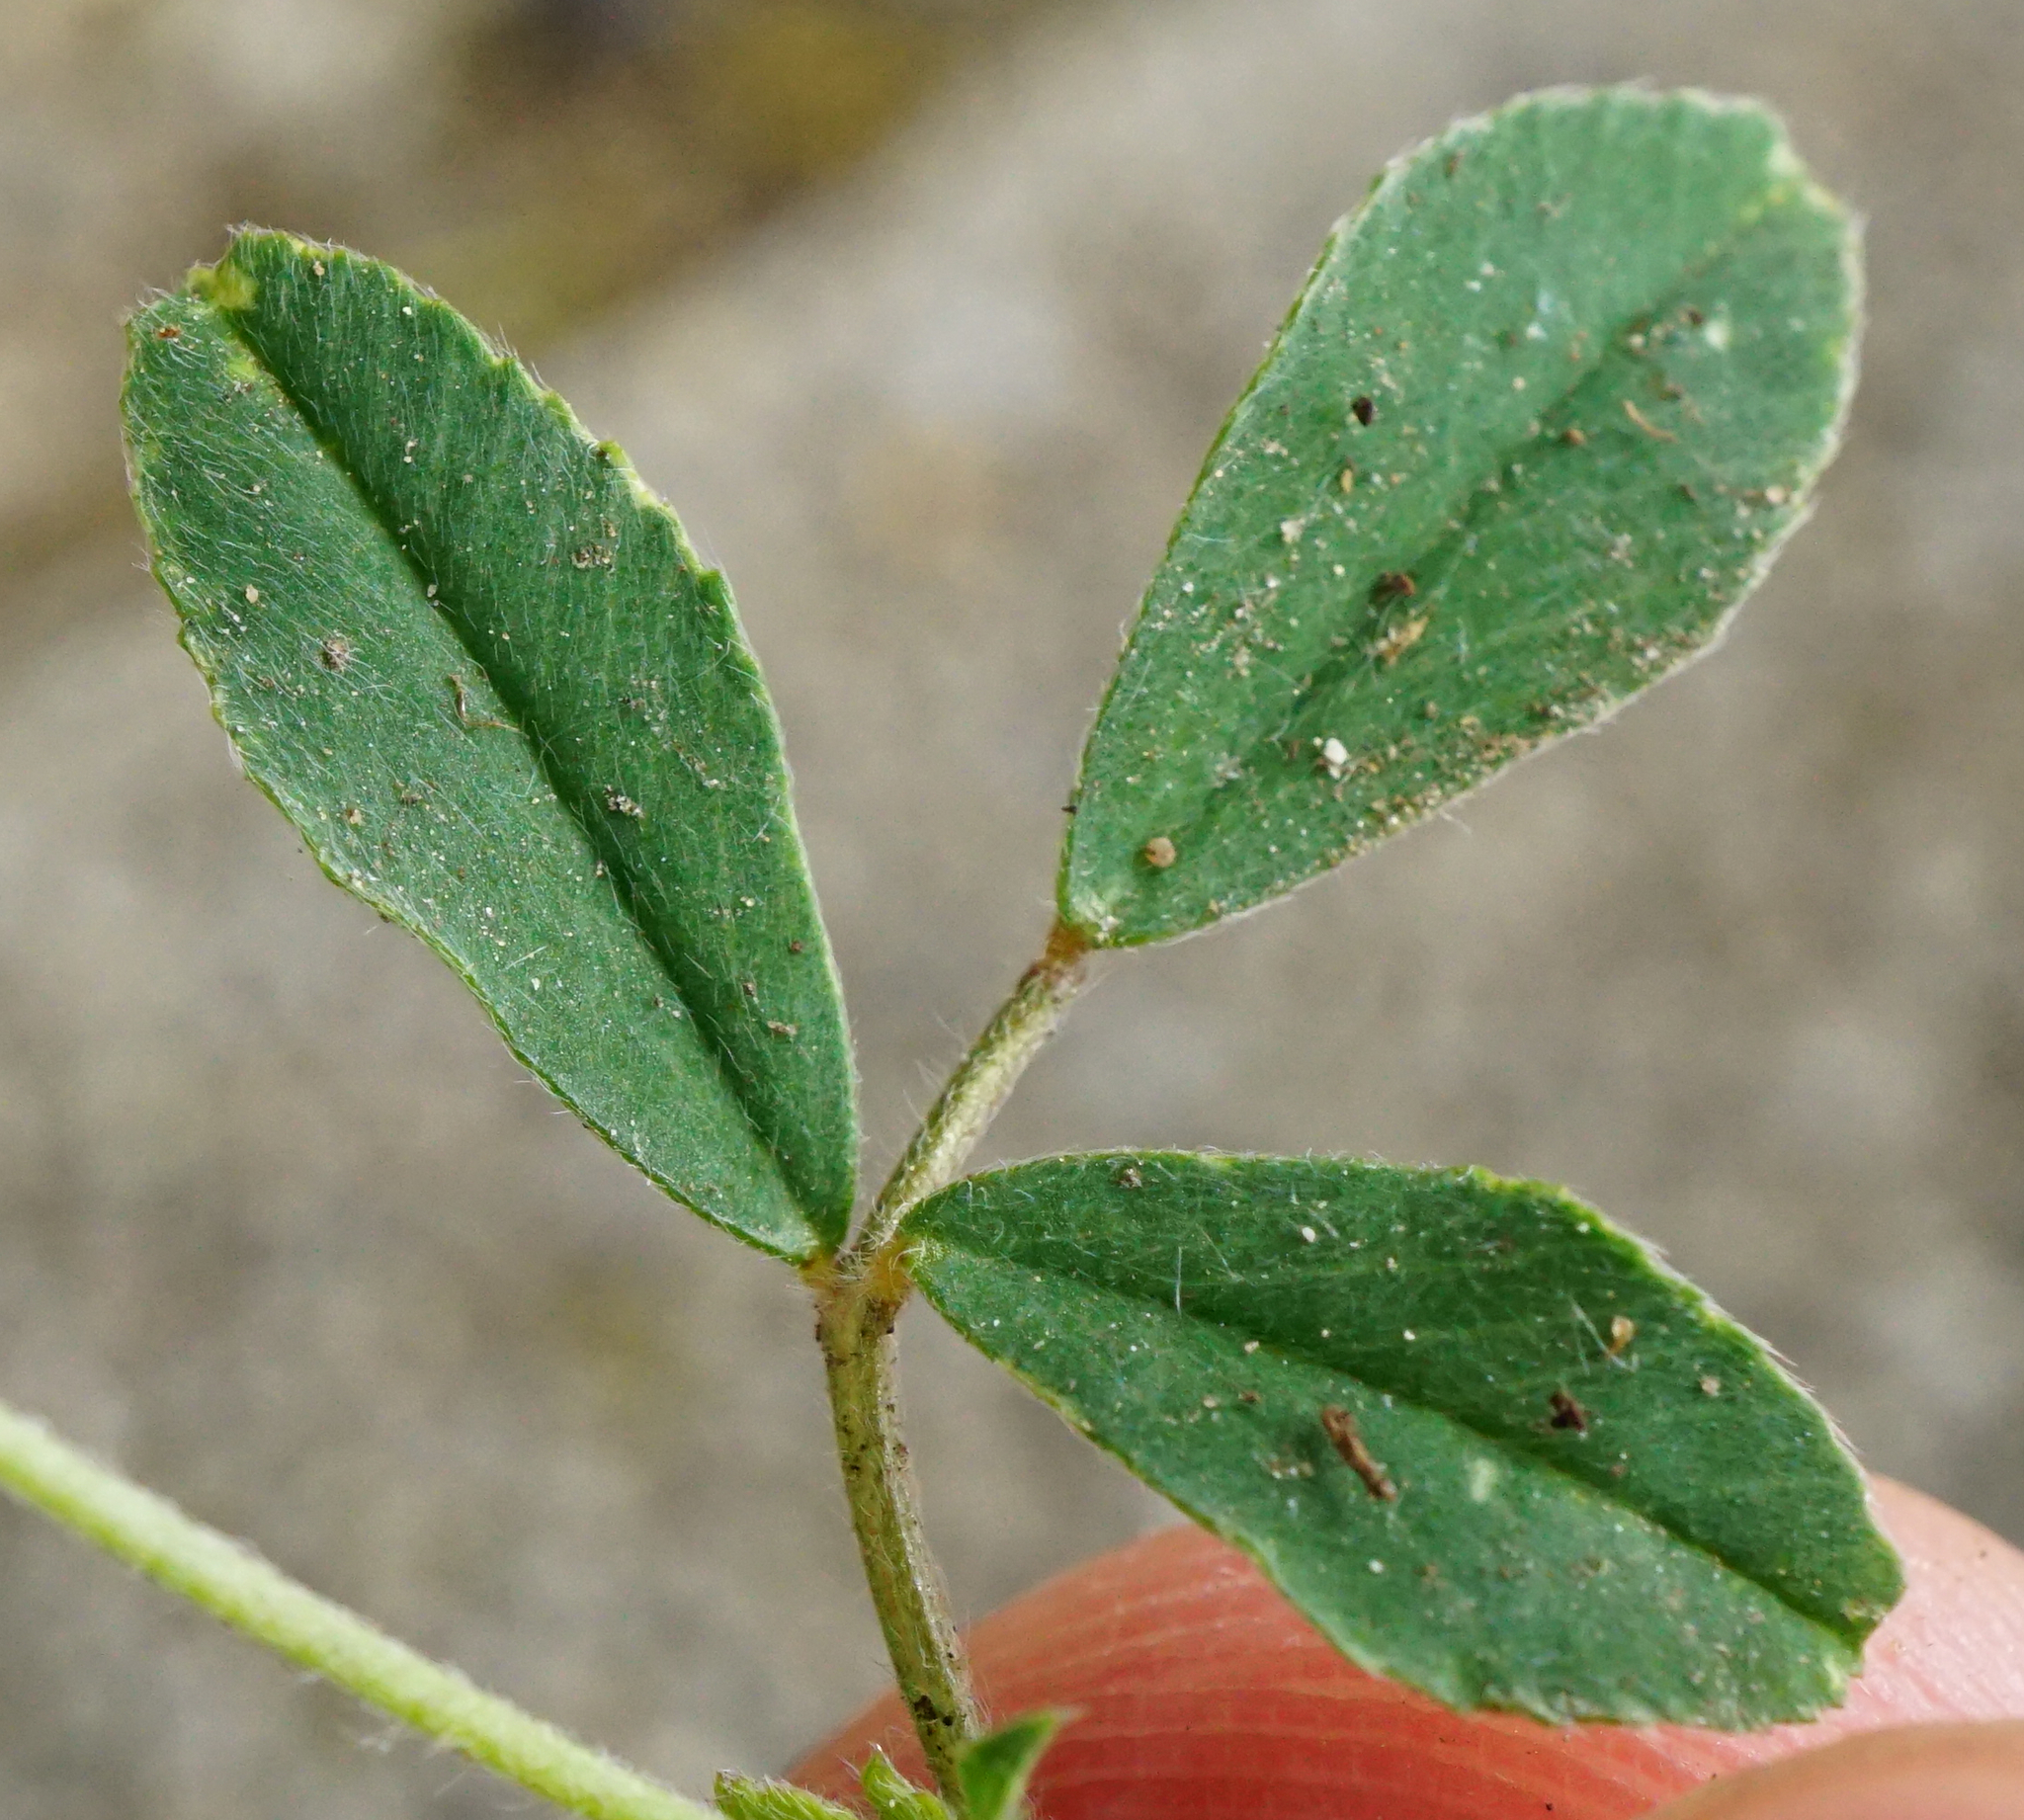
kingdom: Plantae
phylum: Tracheophyta
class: Magnoliopsida
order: Fabales
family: Fabaceae
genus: Medicago
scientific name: Medicago minima
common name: Little bur-clover
